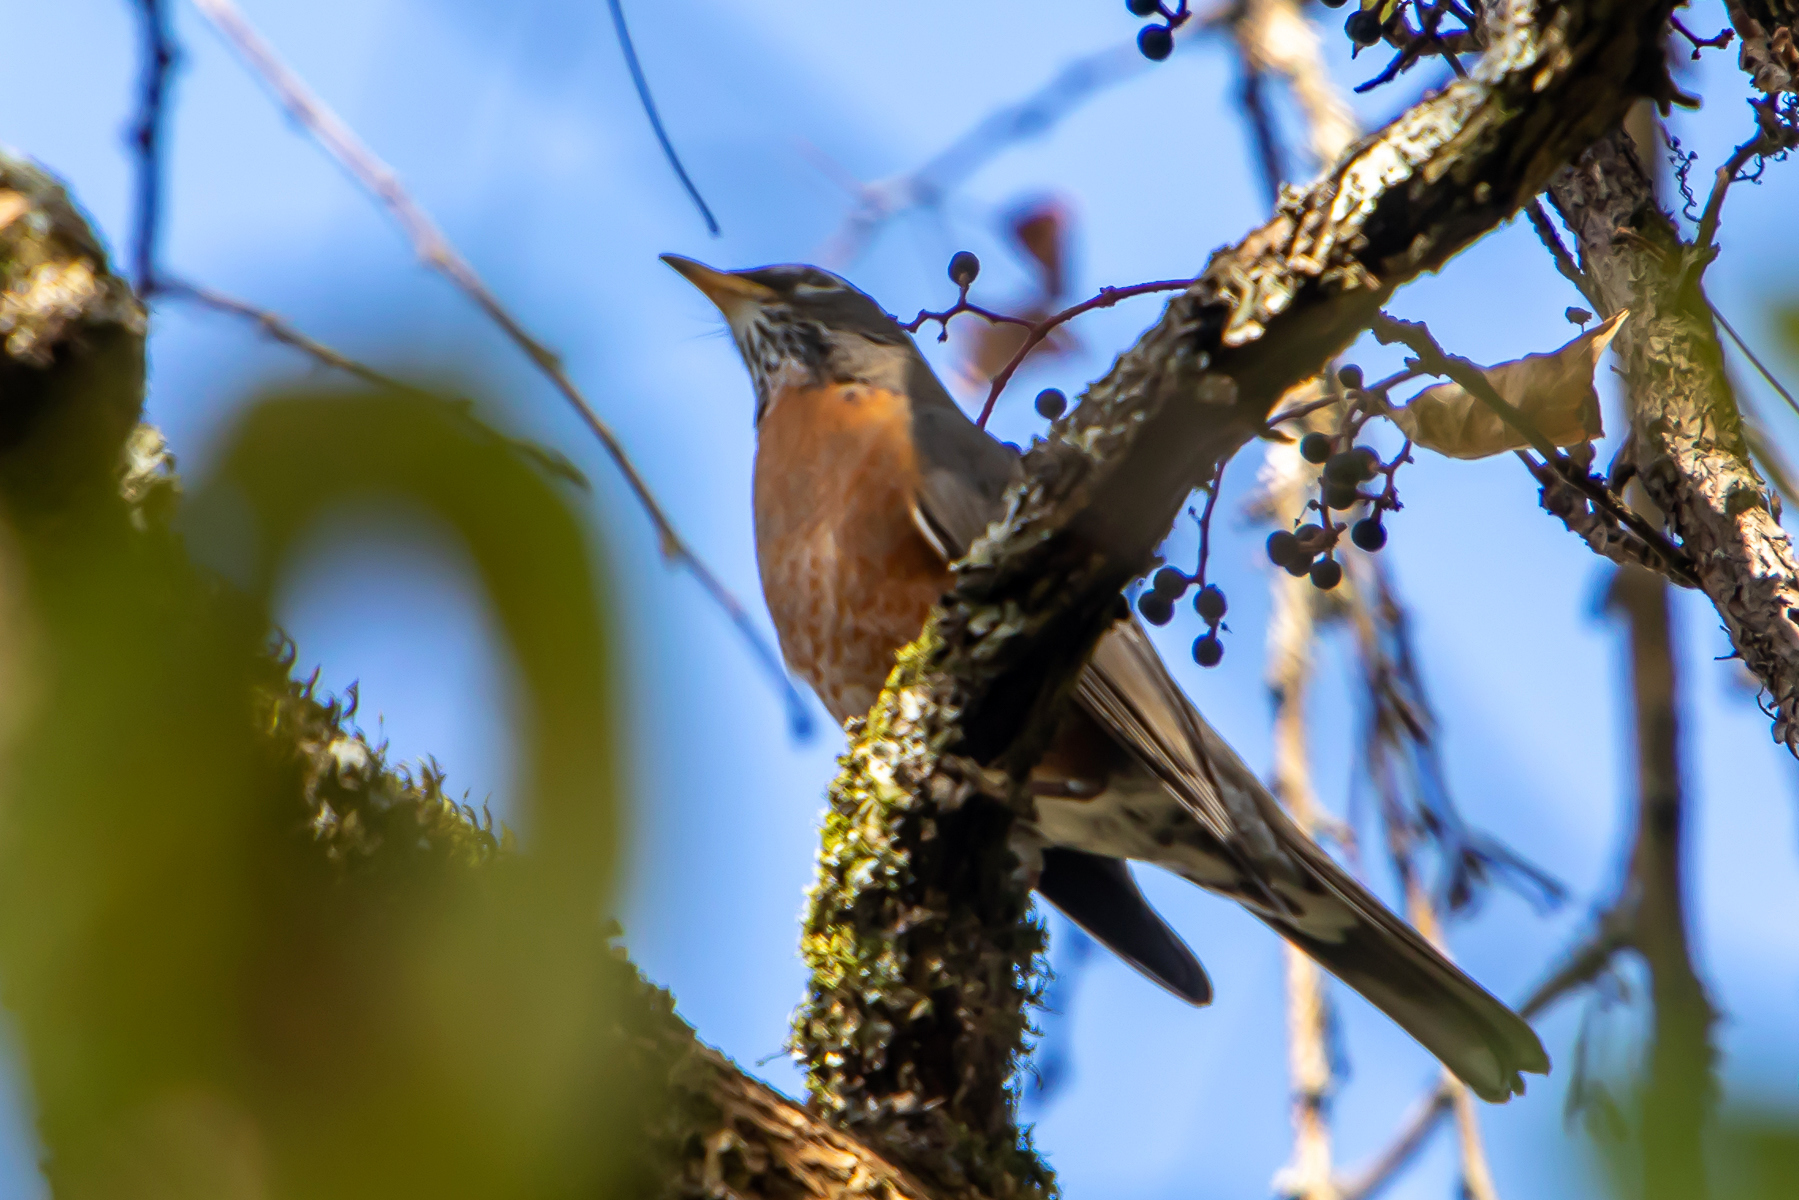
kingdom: Animalia
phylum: Chordata
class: Aves
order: Passeriformes
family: Turdidae
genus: Turdus
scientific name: Turdus migratorius
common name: American robin
